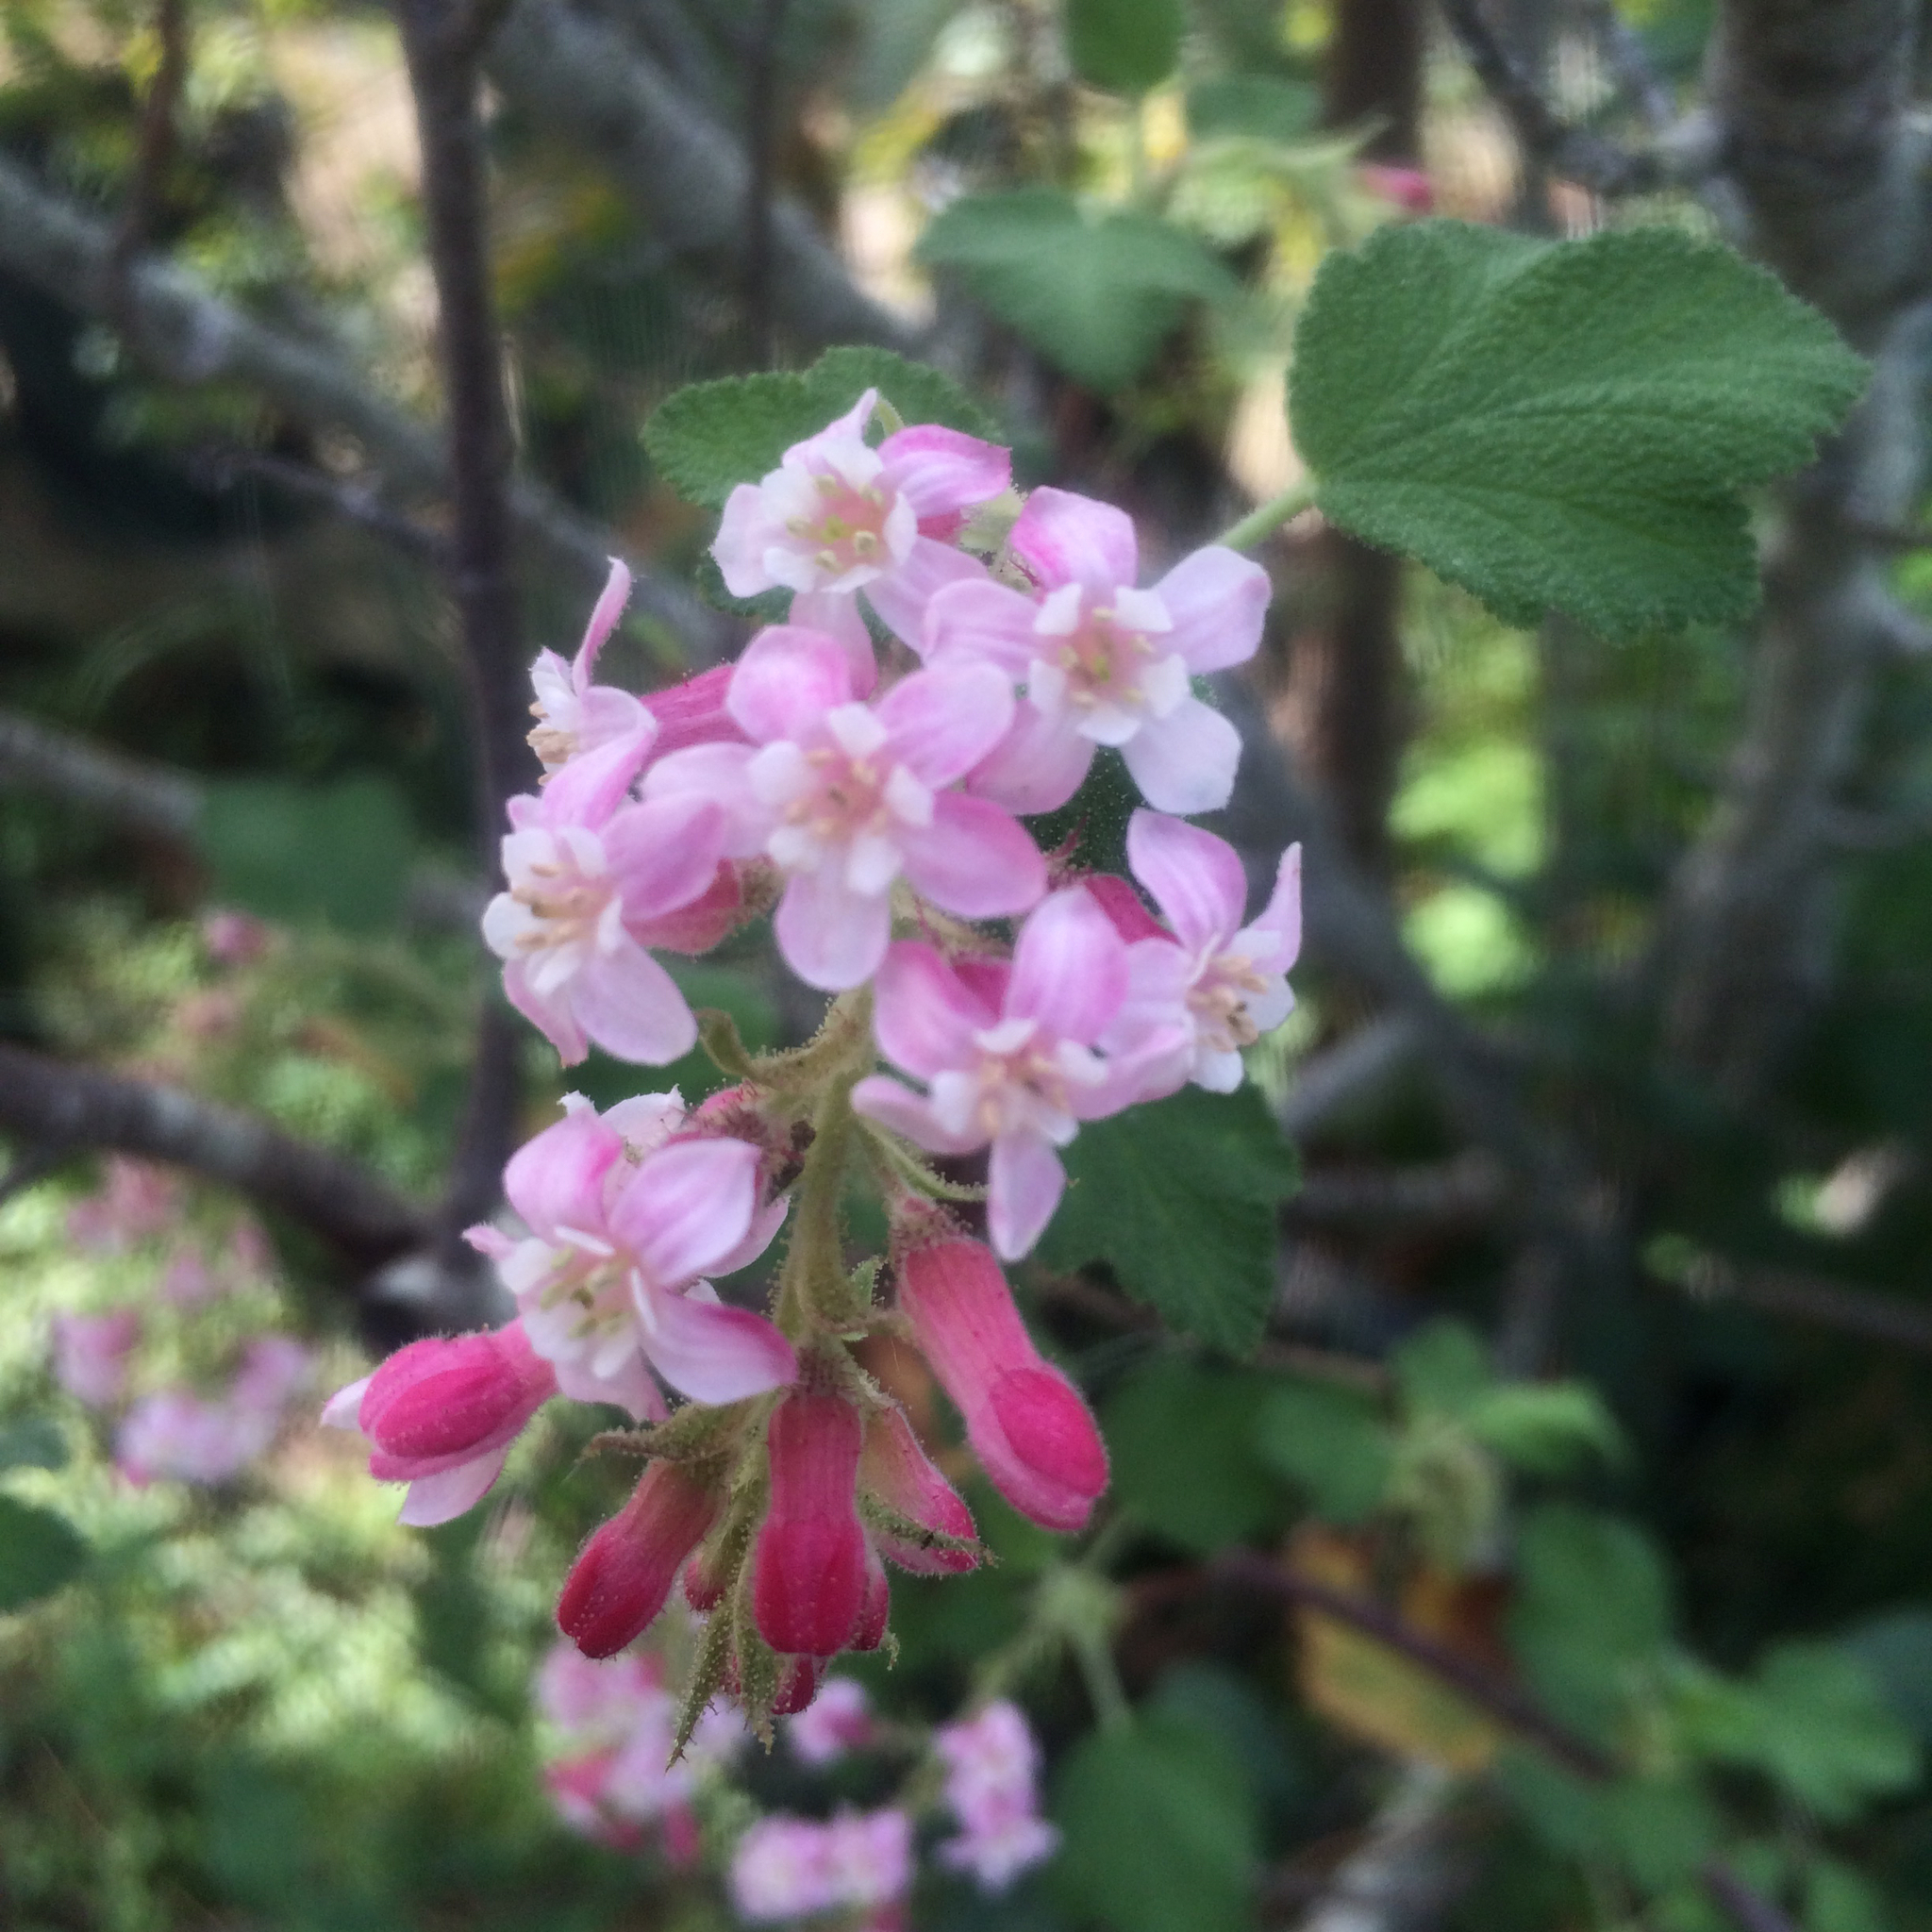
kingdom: Plantae
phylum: Tracheophyta
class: Magnoliopsida
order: Saxifragales
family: Grossulariaceae
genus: Ribes
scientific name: Ribes malvaceum
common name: Chaparral currant
